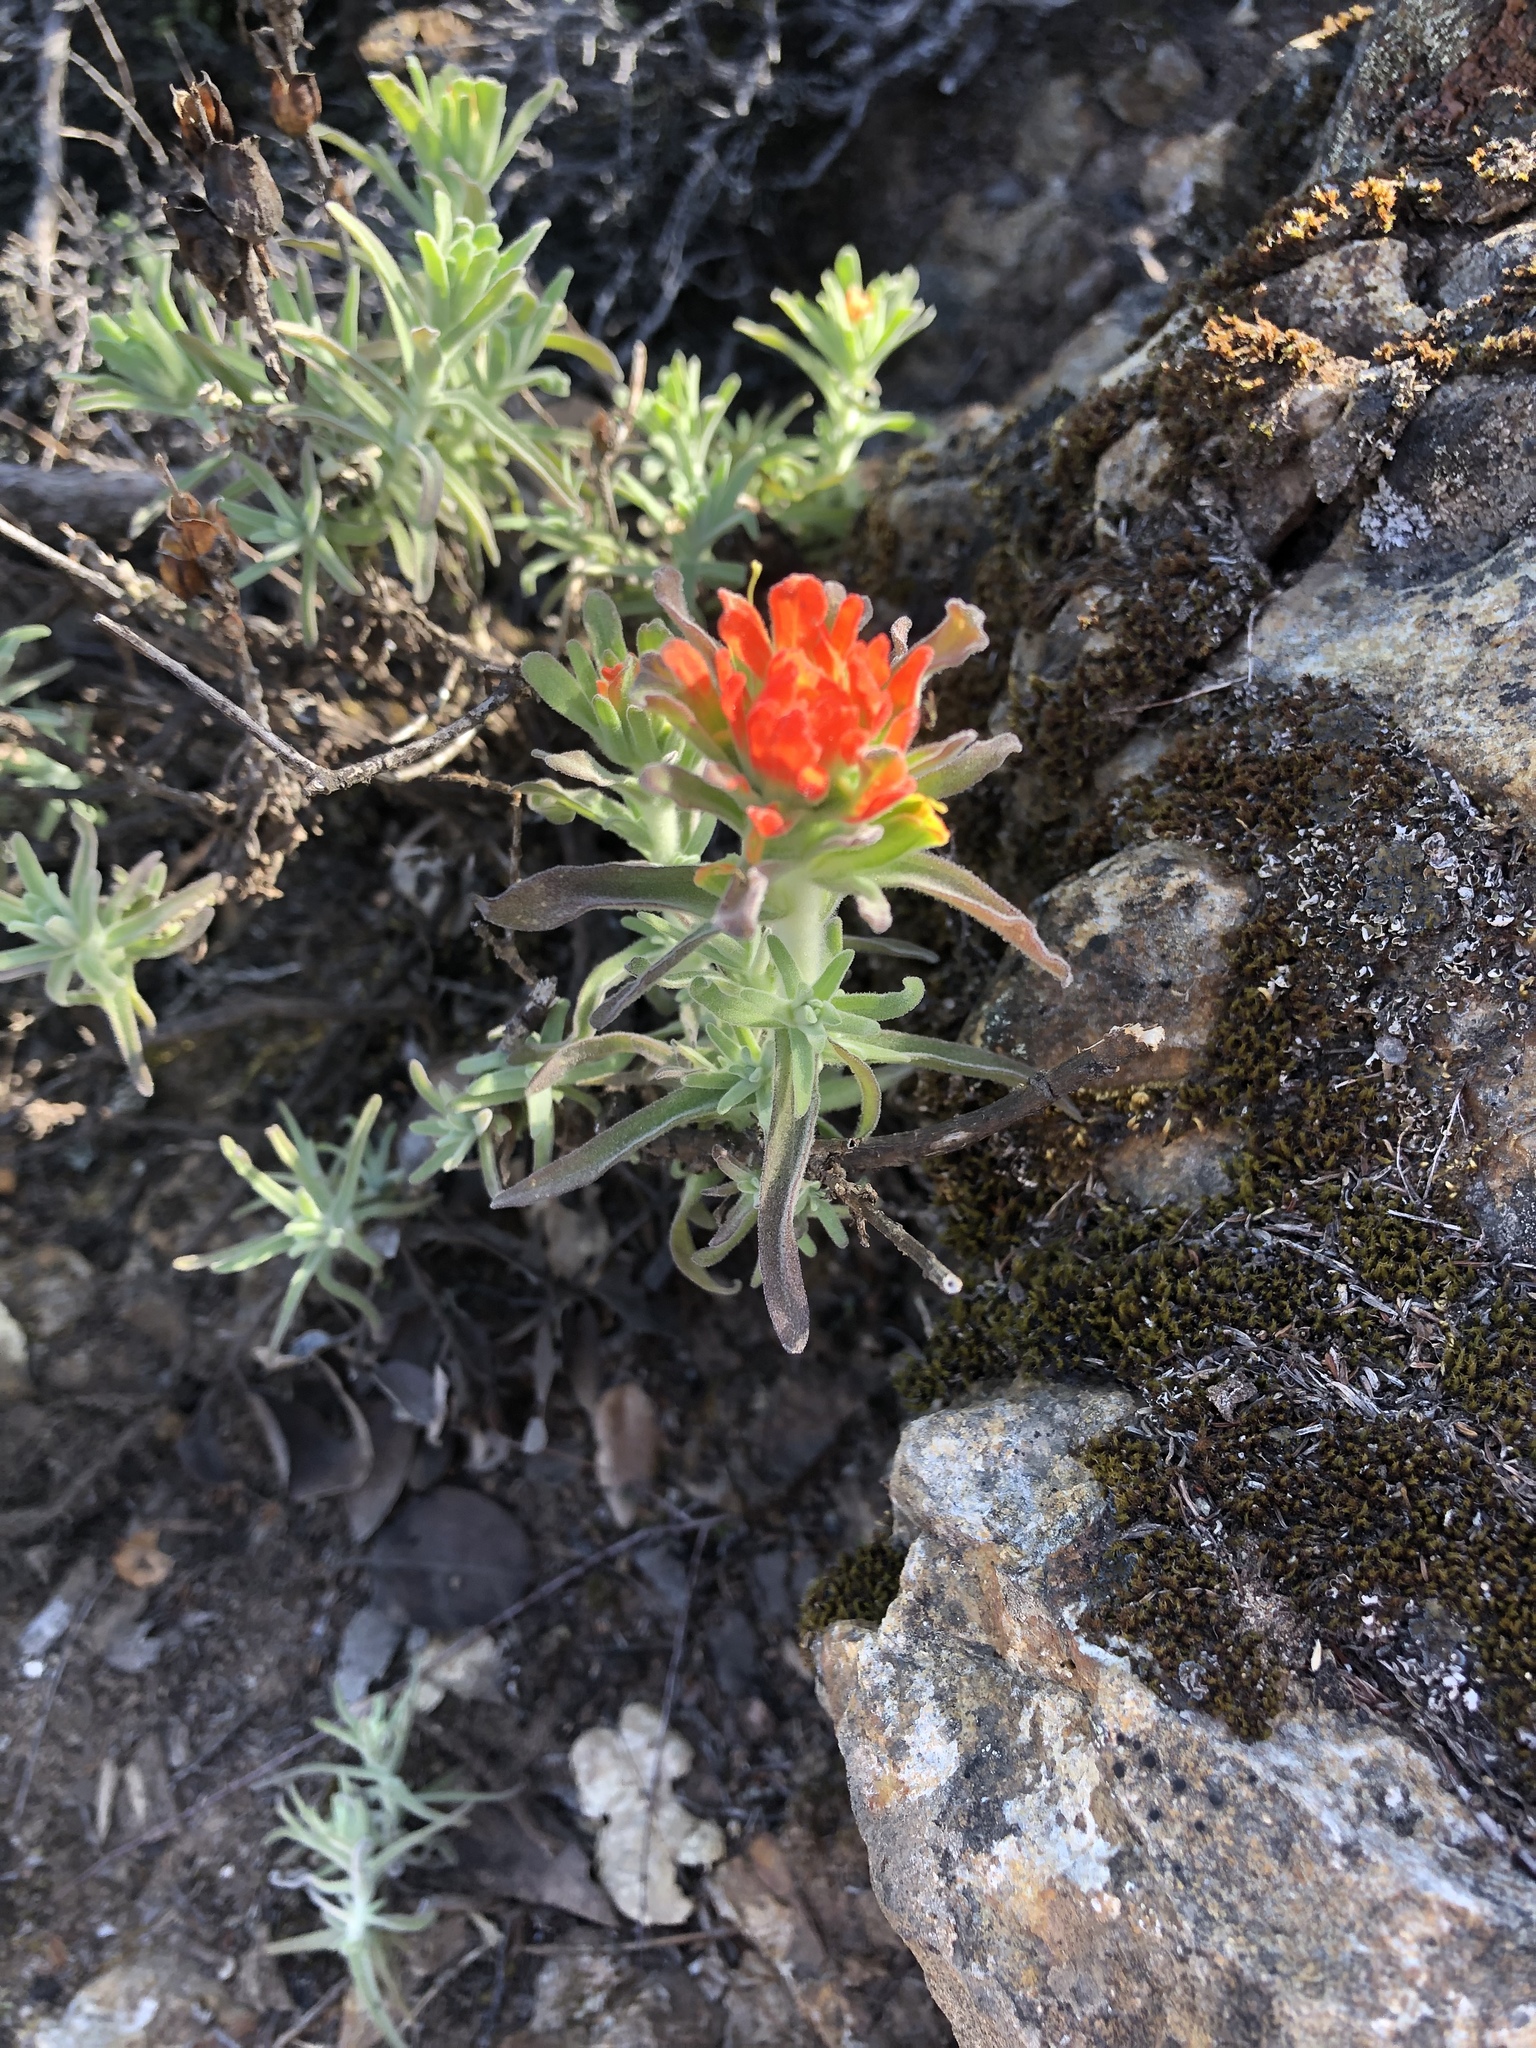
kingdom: Plantae
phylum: Tracheophyta
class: Magnoliopsida
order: Lamiales
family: Orobanchaceae
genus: Castilleja
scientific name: Castilleja foliolosa
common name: Woolly indian paintbrush
